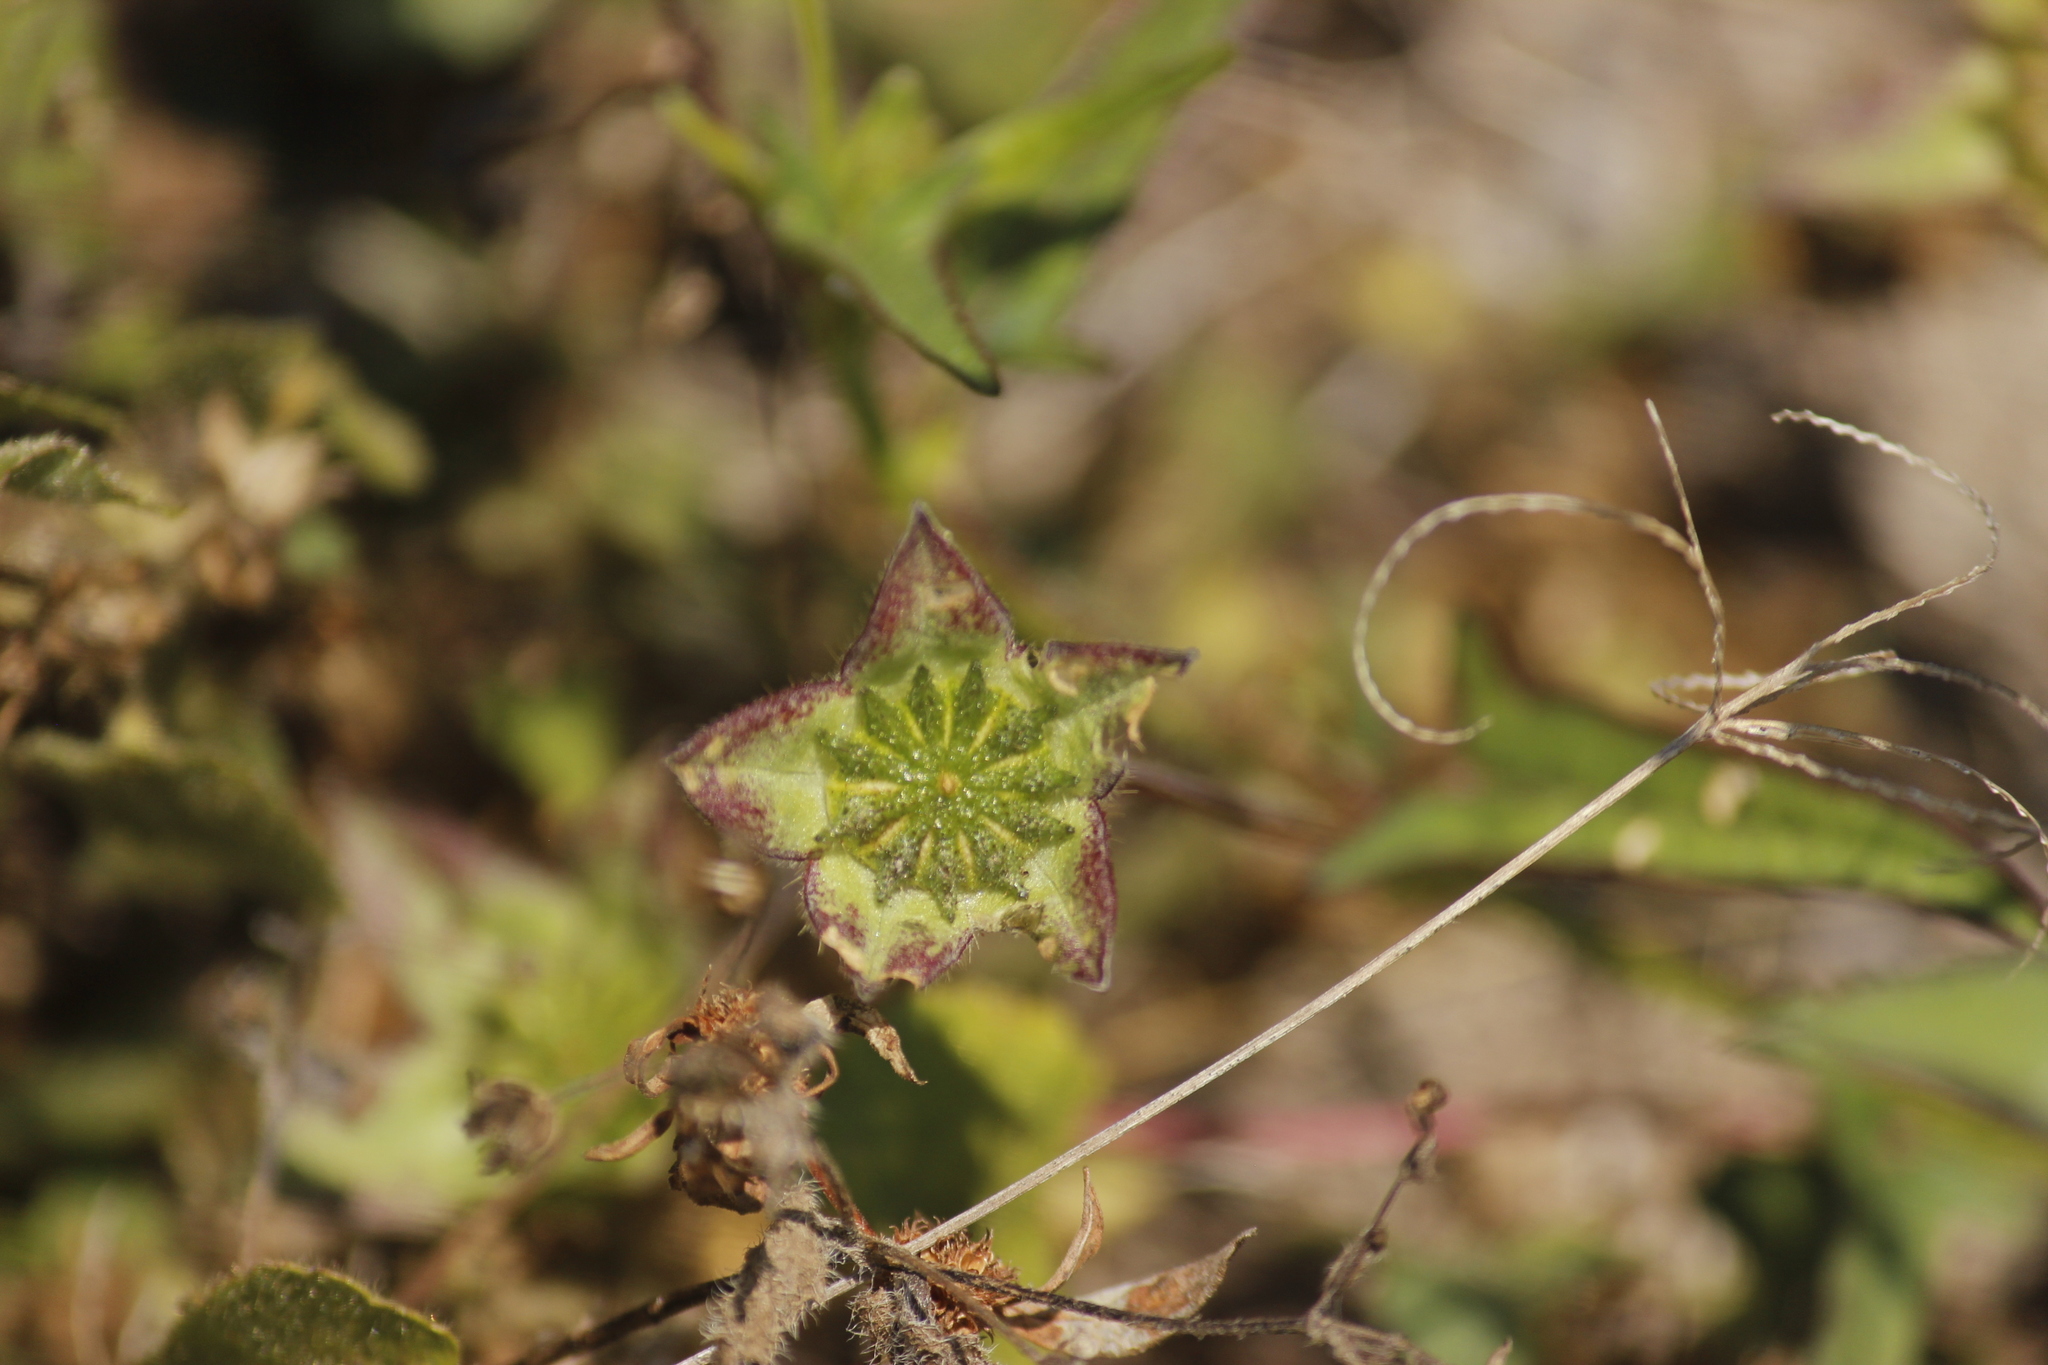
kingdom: Plantae
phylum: Tracheophyta
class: Magnoliopsida
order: Malvales
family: Malvaceae
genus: Anoda
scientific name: Anoda cristata
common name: Spurred anoda
